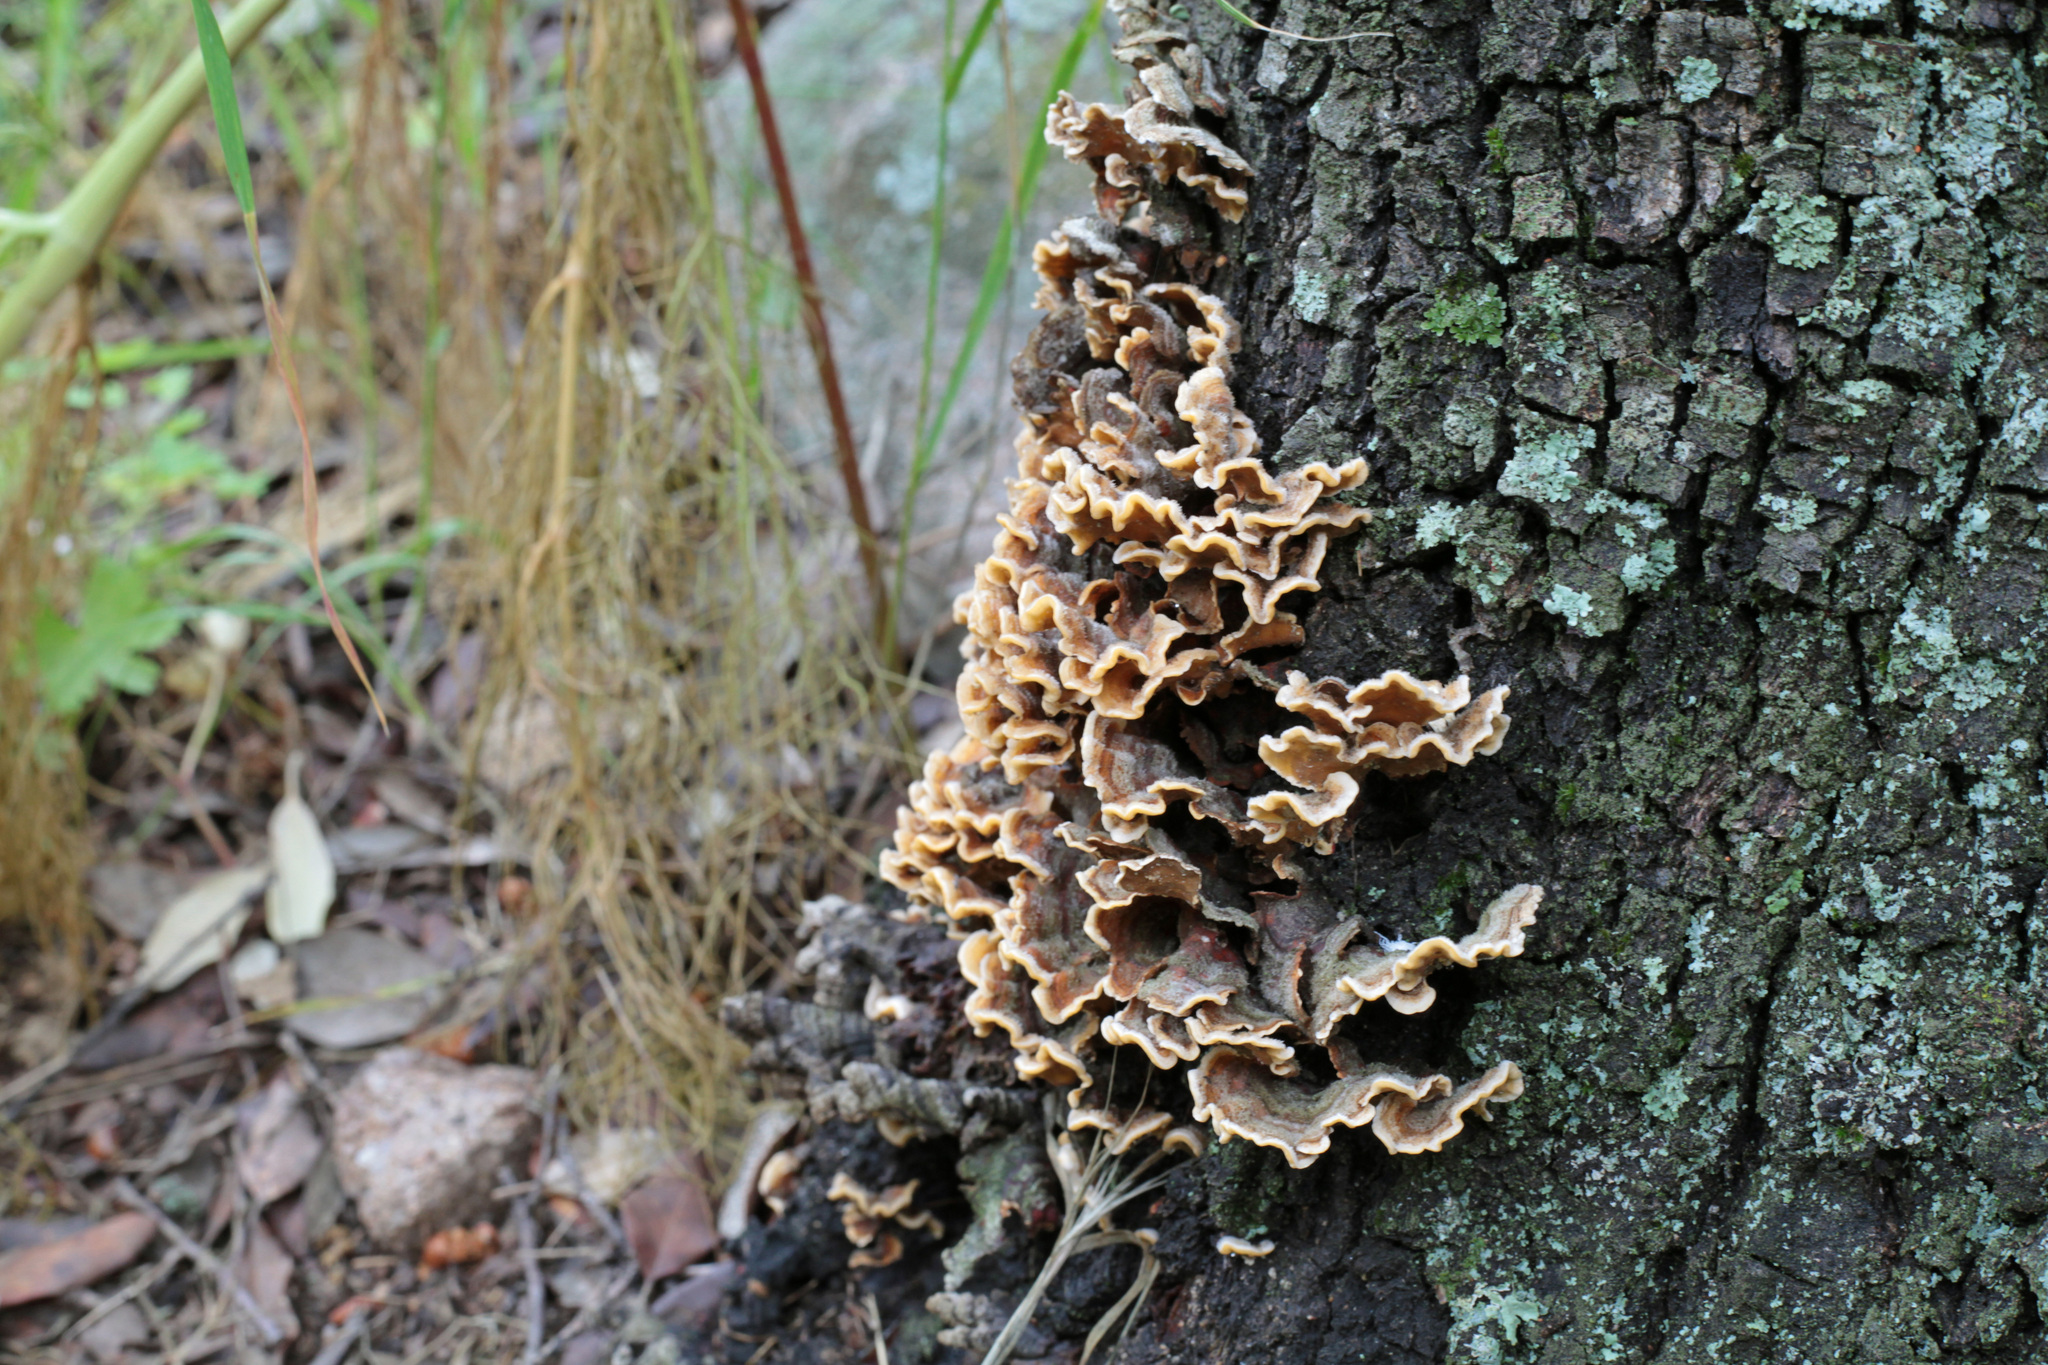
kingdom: Fungi
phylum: Basidiomycota
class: Agaricomycetes
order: Russulales
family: Stereaceae
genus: Stereum
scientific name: Stereum hirsutum
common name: Hairy curtain crust
